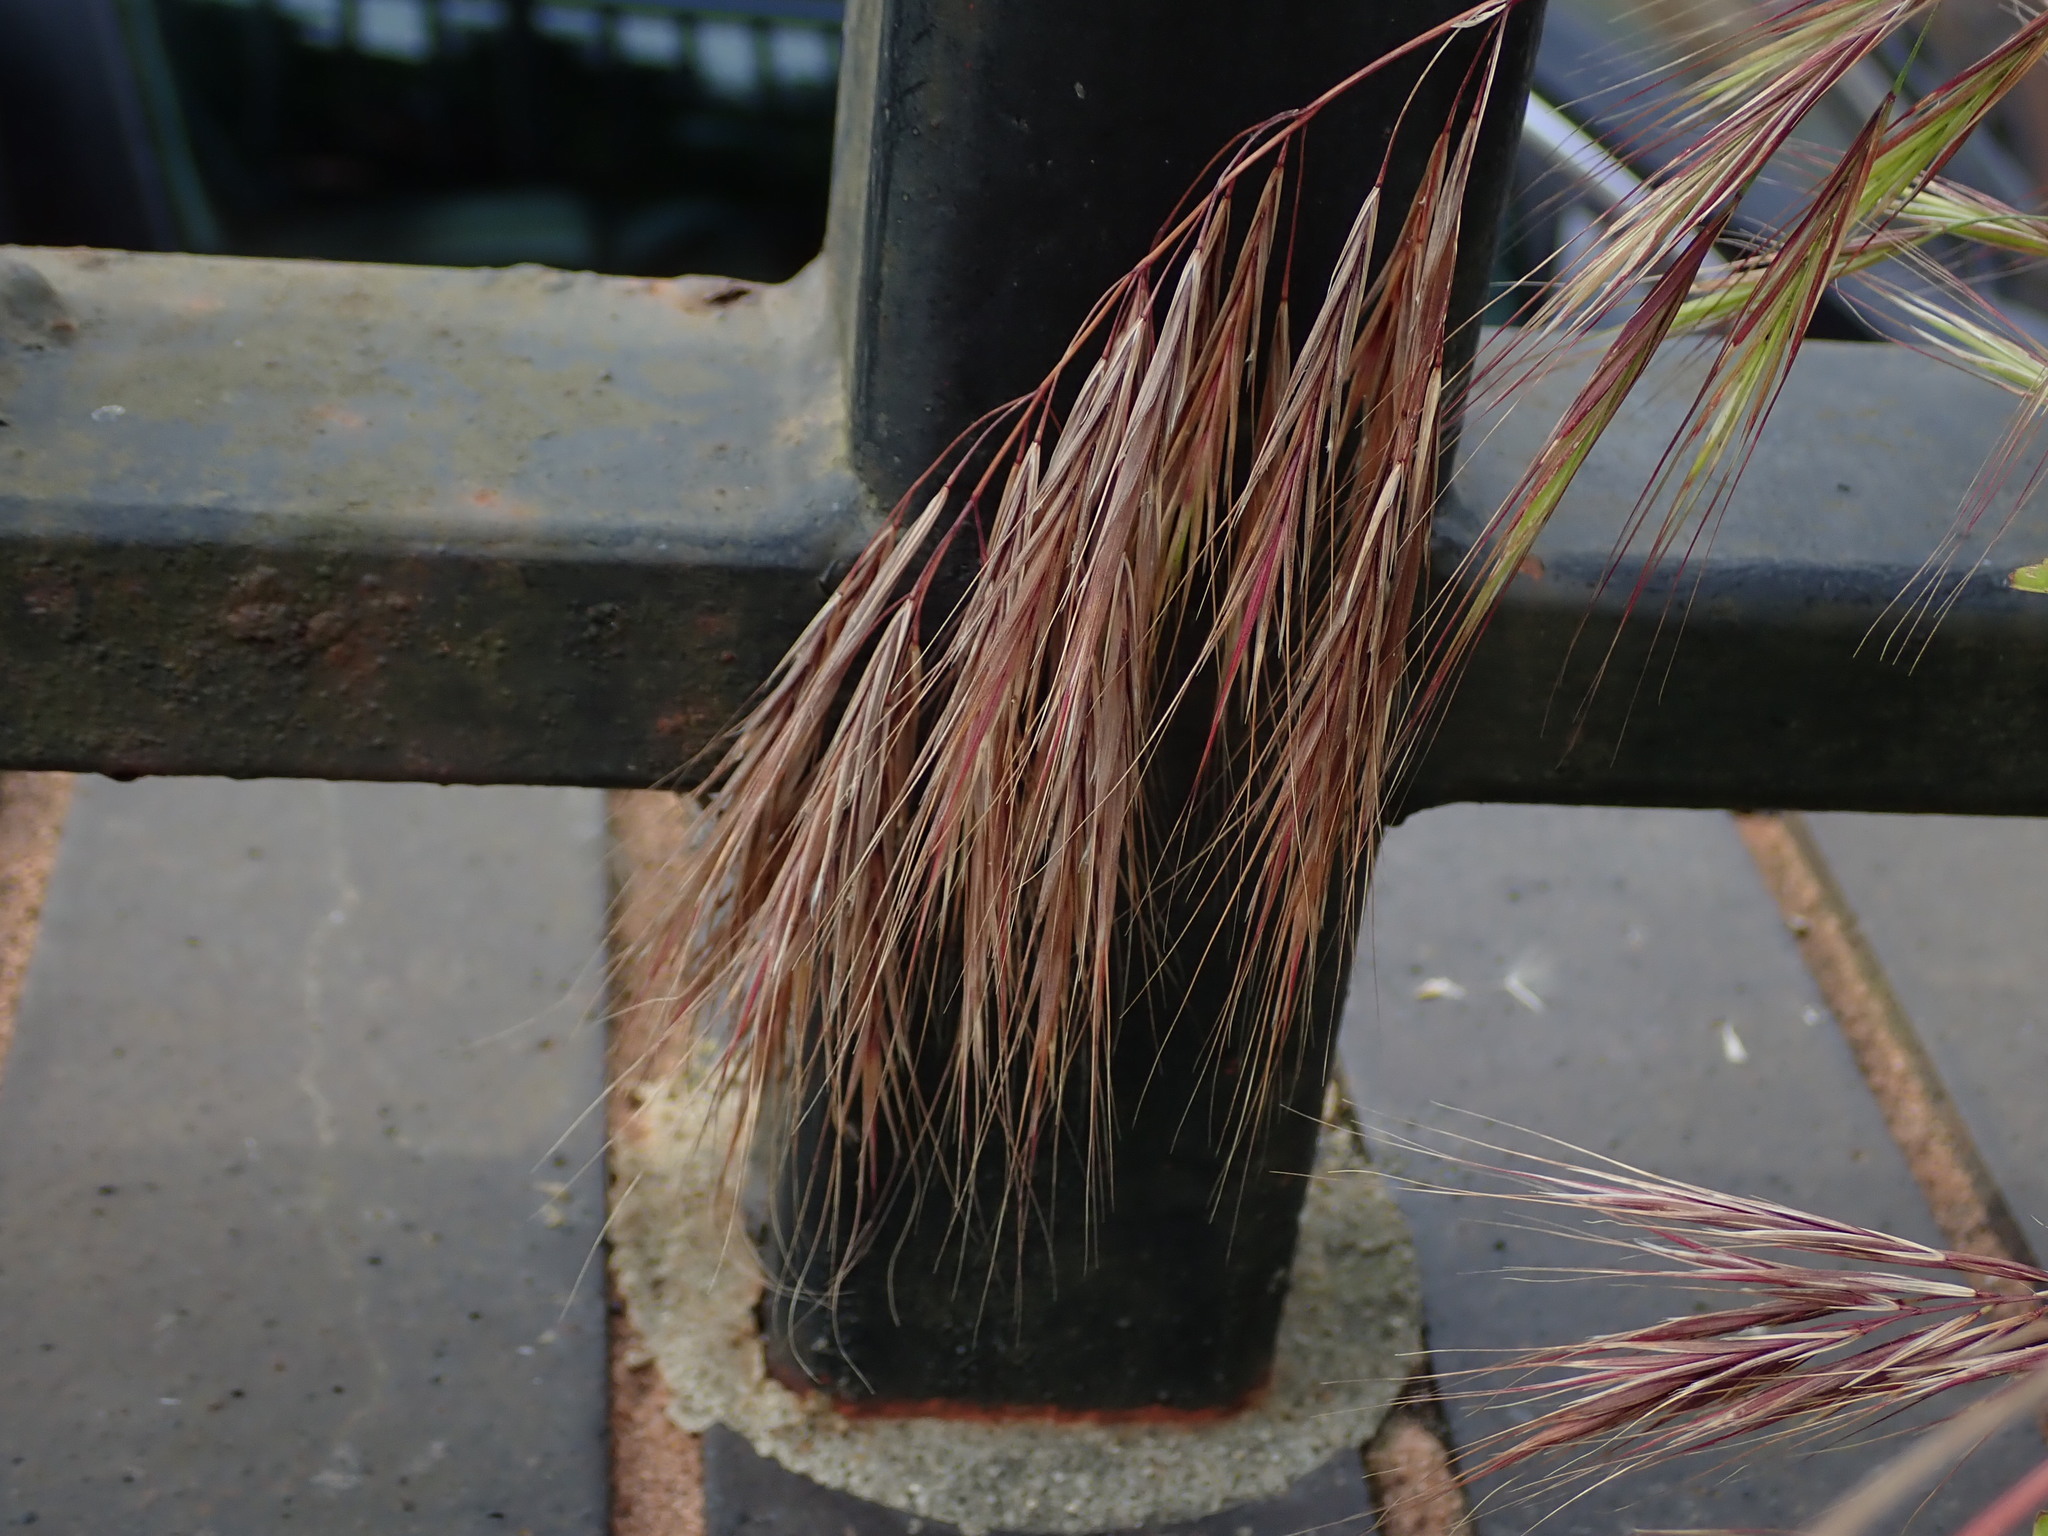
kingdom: Plantae
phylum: Tracheophyta
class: Liliopsida
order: Poales
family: Poaceae
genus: Bromus
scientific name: Bromus madritensis
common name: Compact brome
